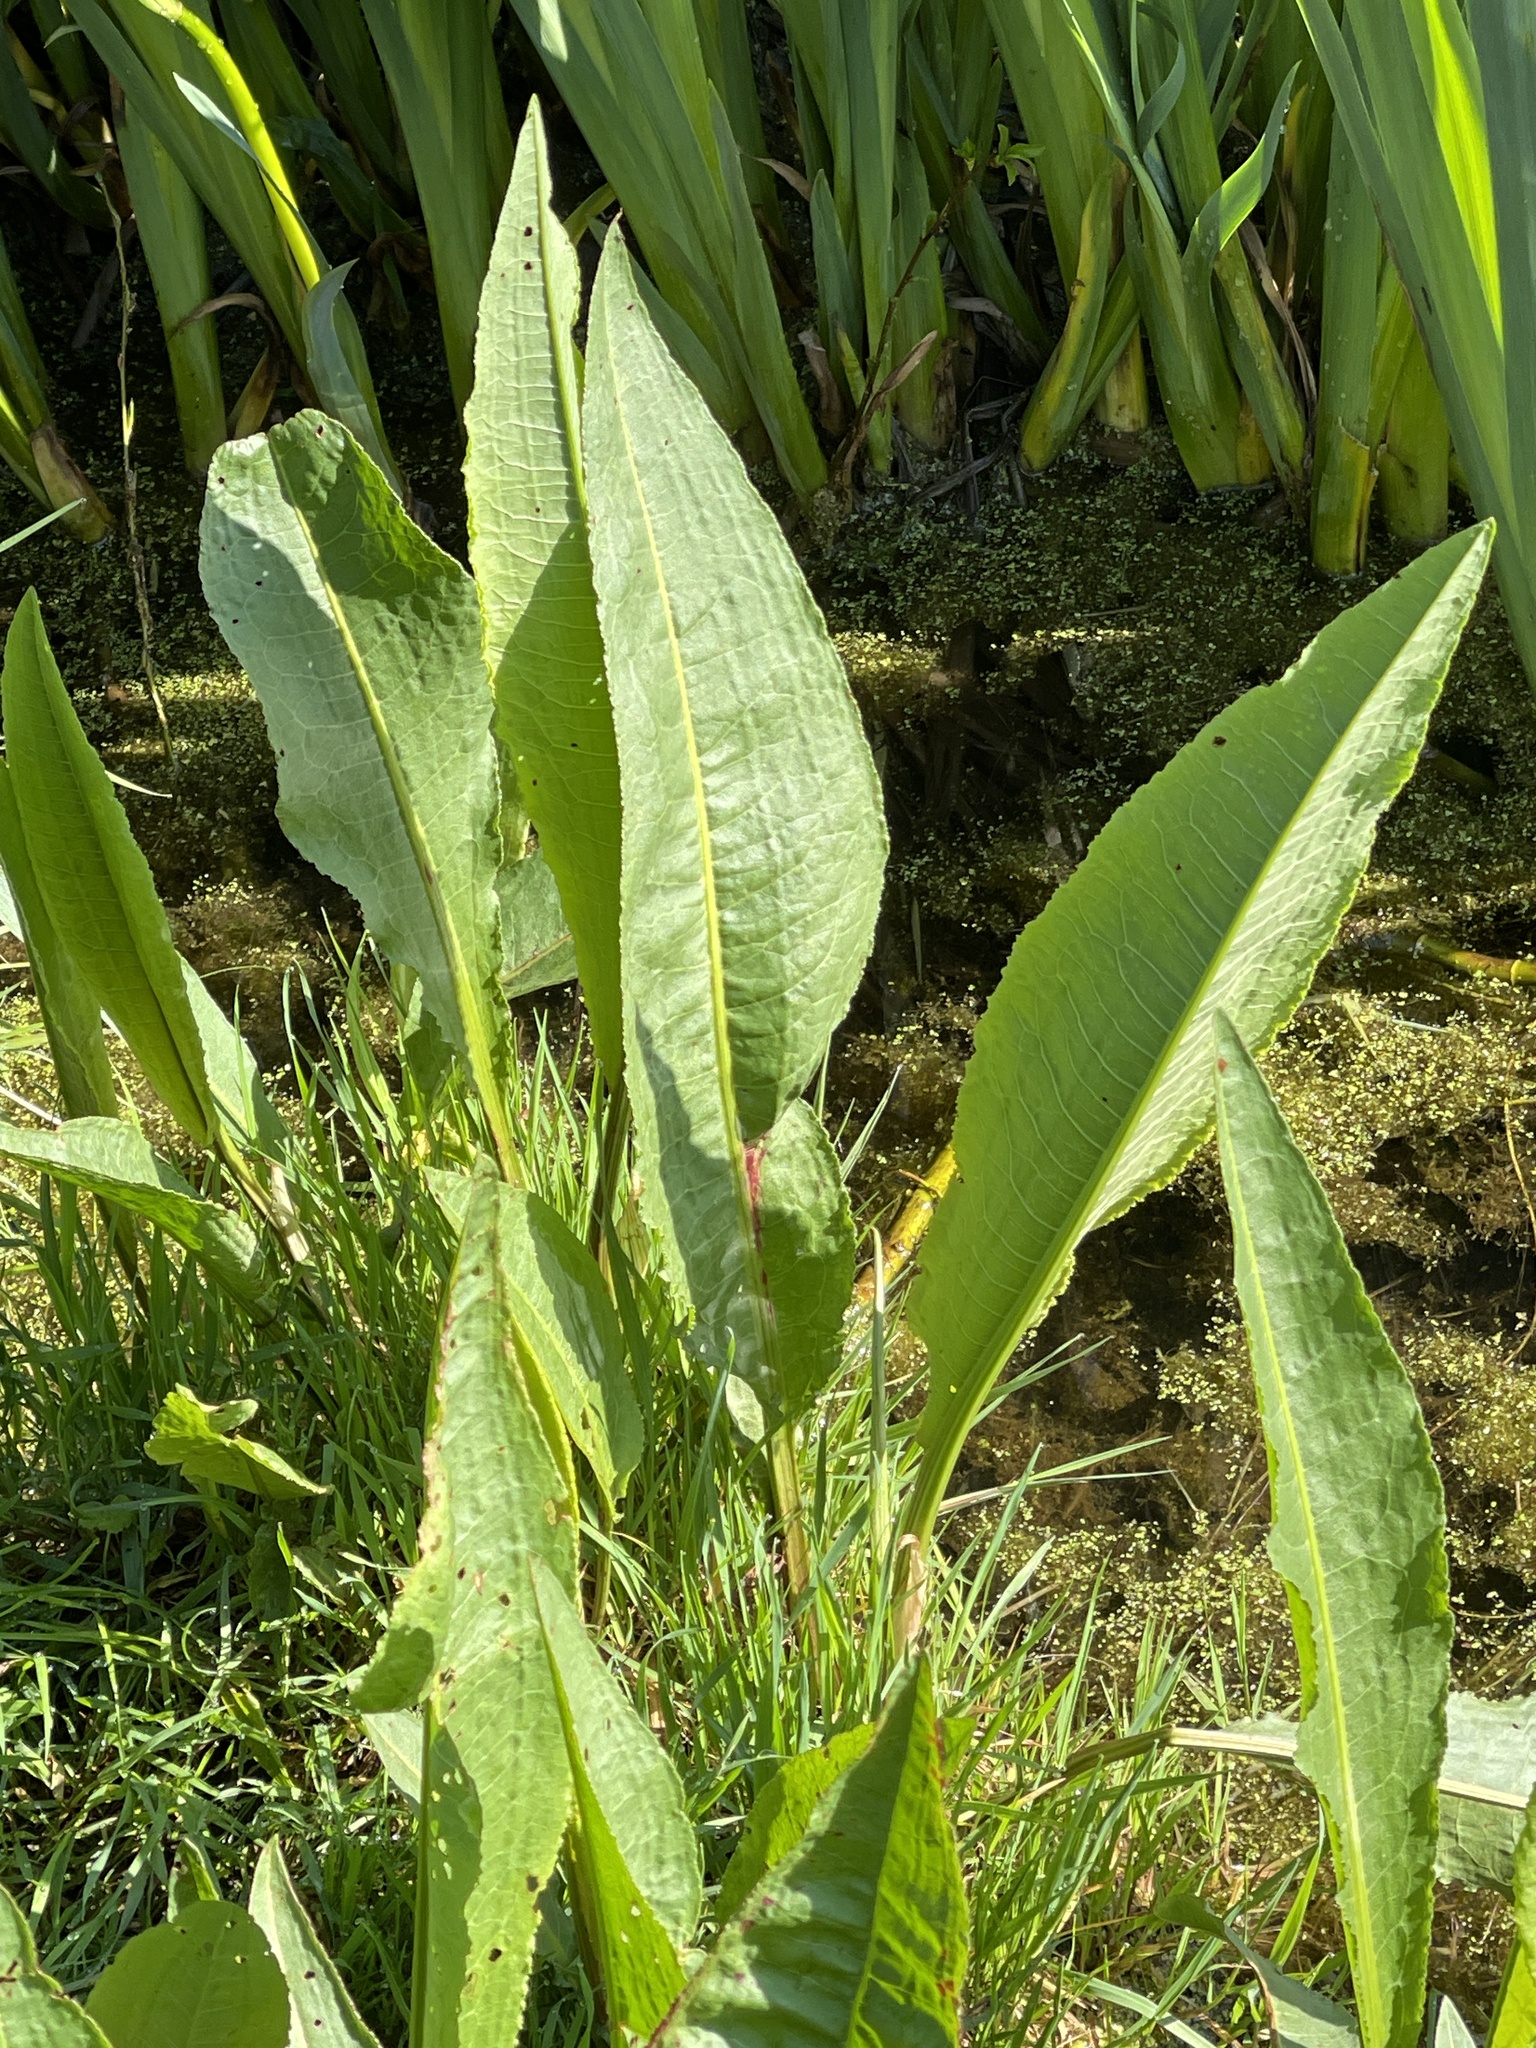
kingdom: Plantae
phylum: Tracheophyta
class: Magnoliopsida
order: Caryophyllales
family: Polygonaceae
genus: Rumex
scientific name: Rumex hydrolapathum
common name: Water dock
